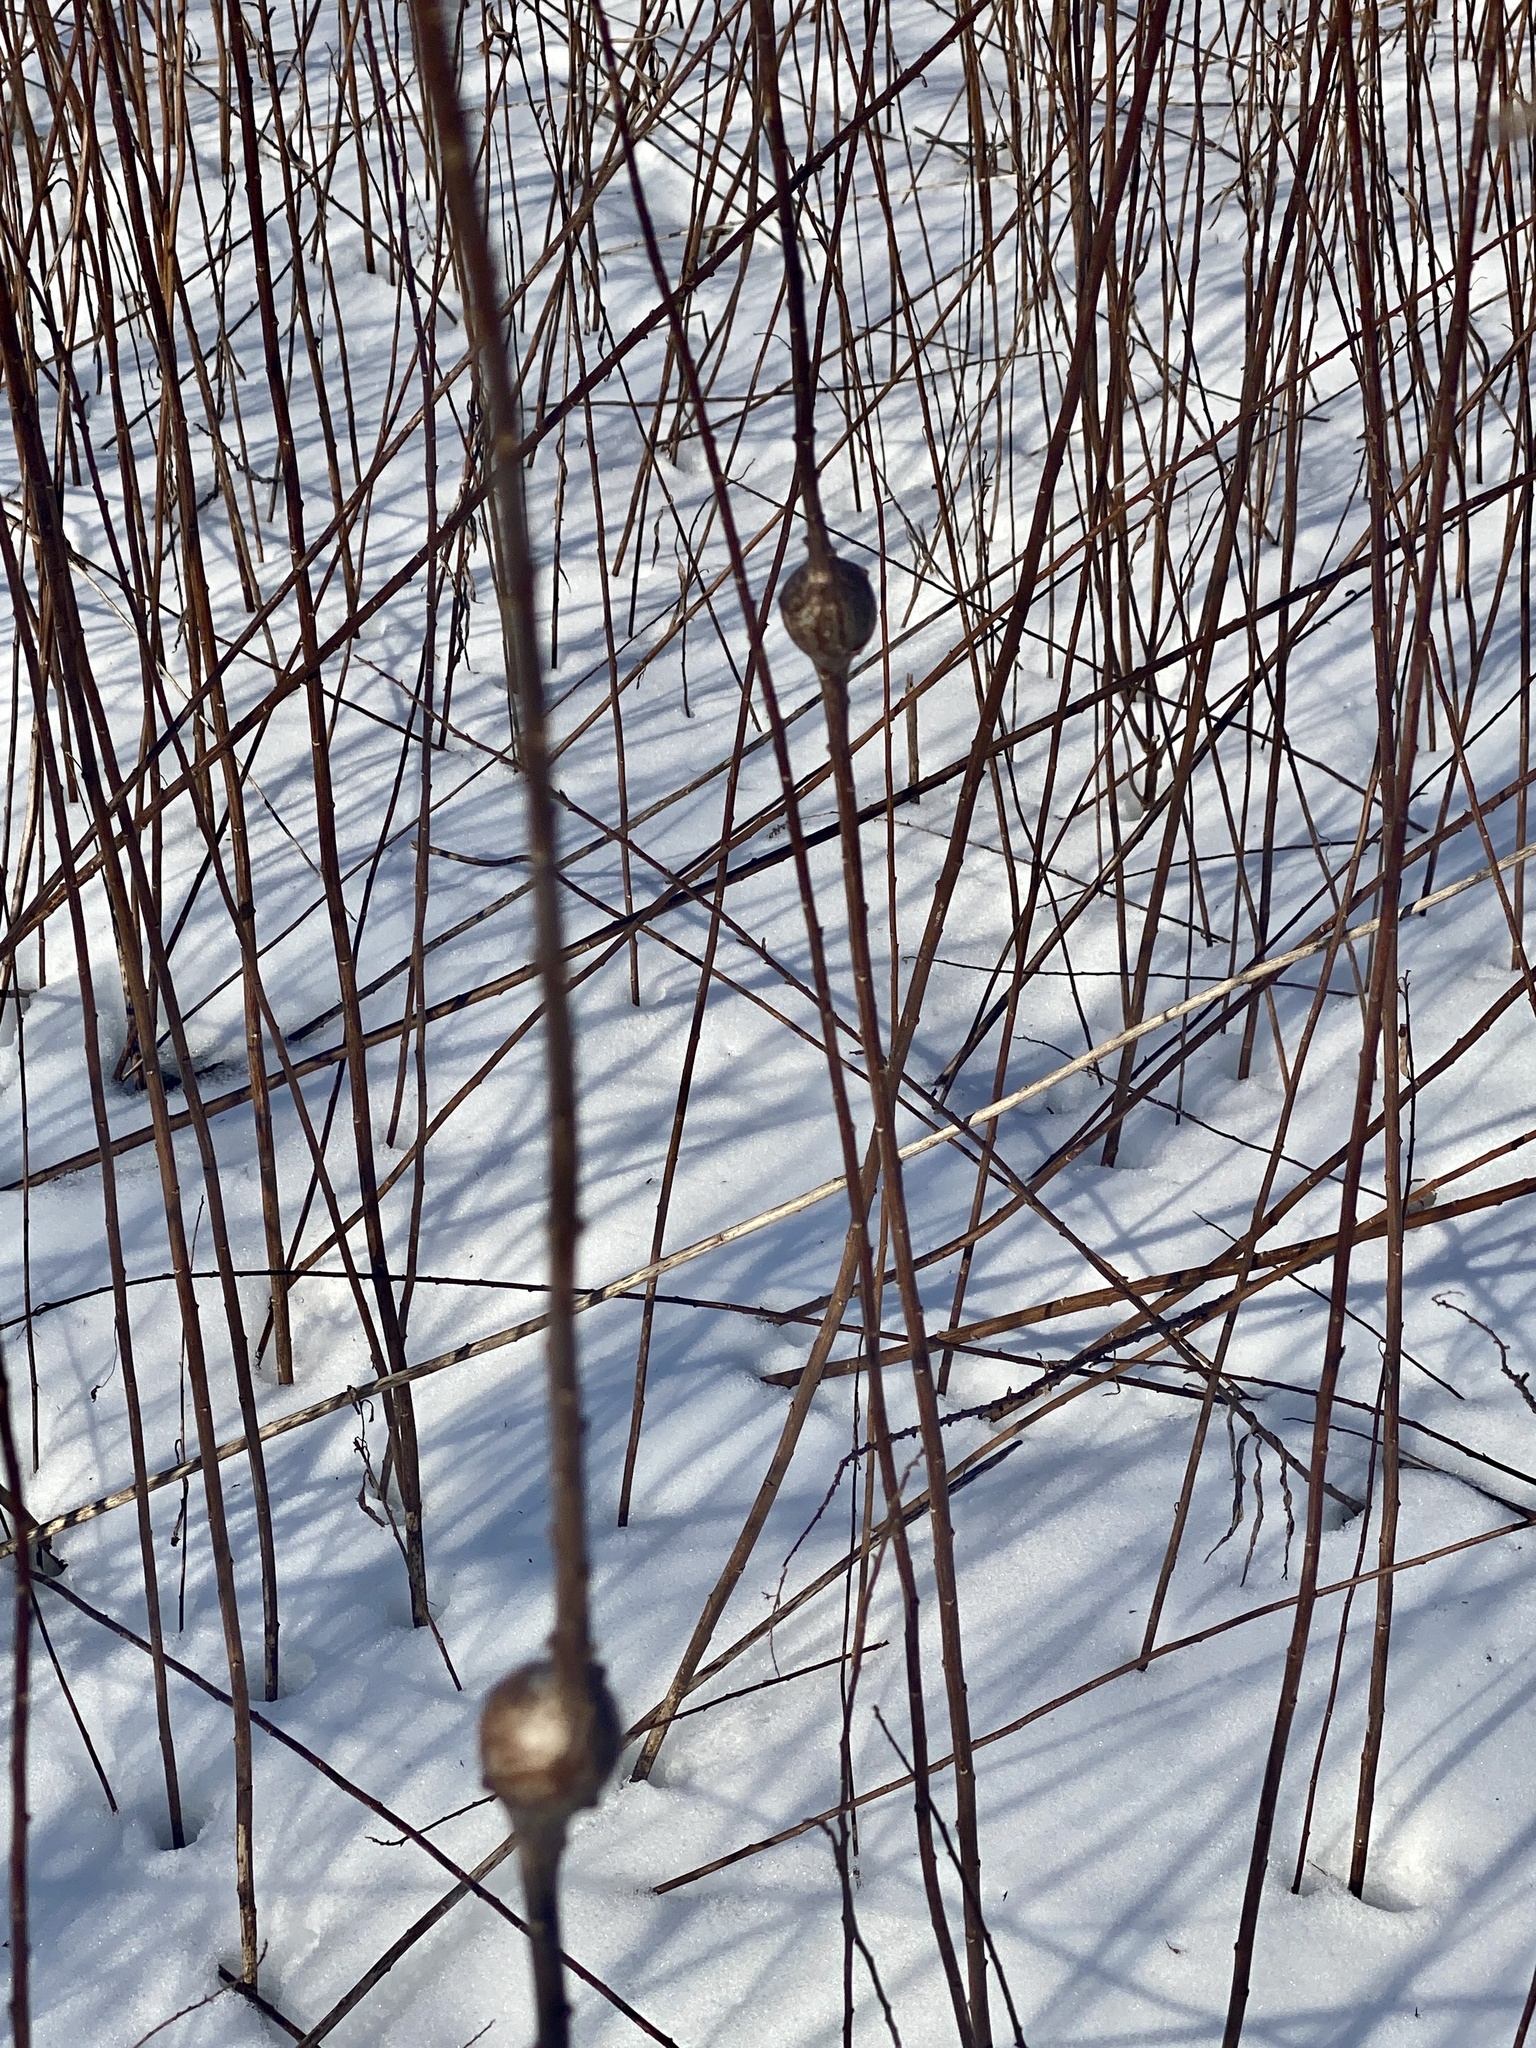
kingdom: Animalia
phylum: Arthropoda
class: Insecta
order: Diptera
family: Tephritidae
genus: Eurosta
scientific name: Eurosta solidaginis
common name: Goldenrod gall fly
